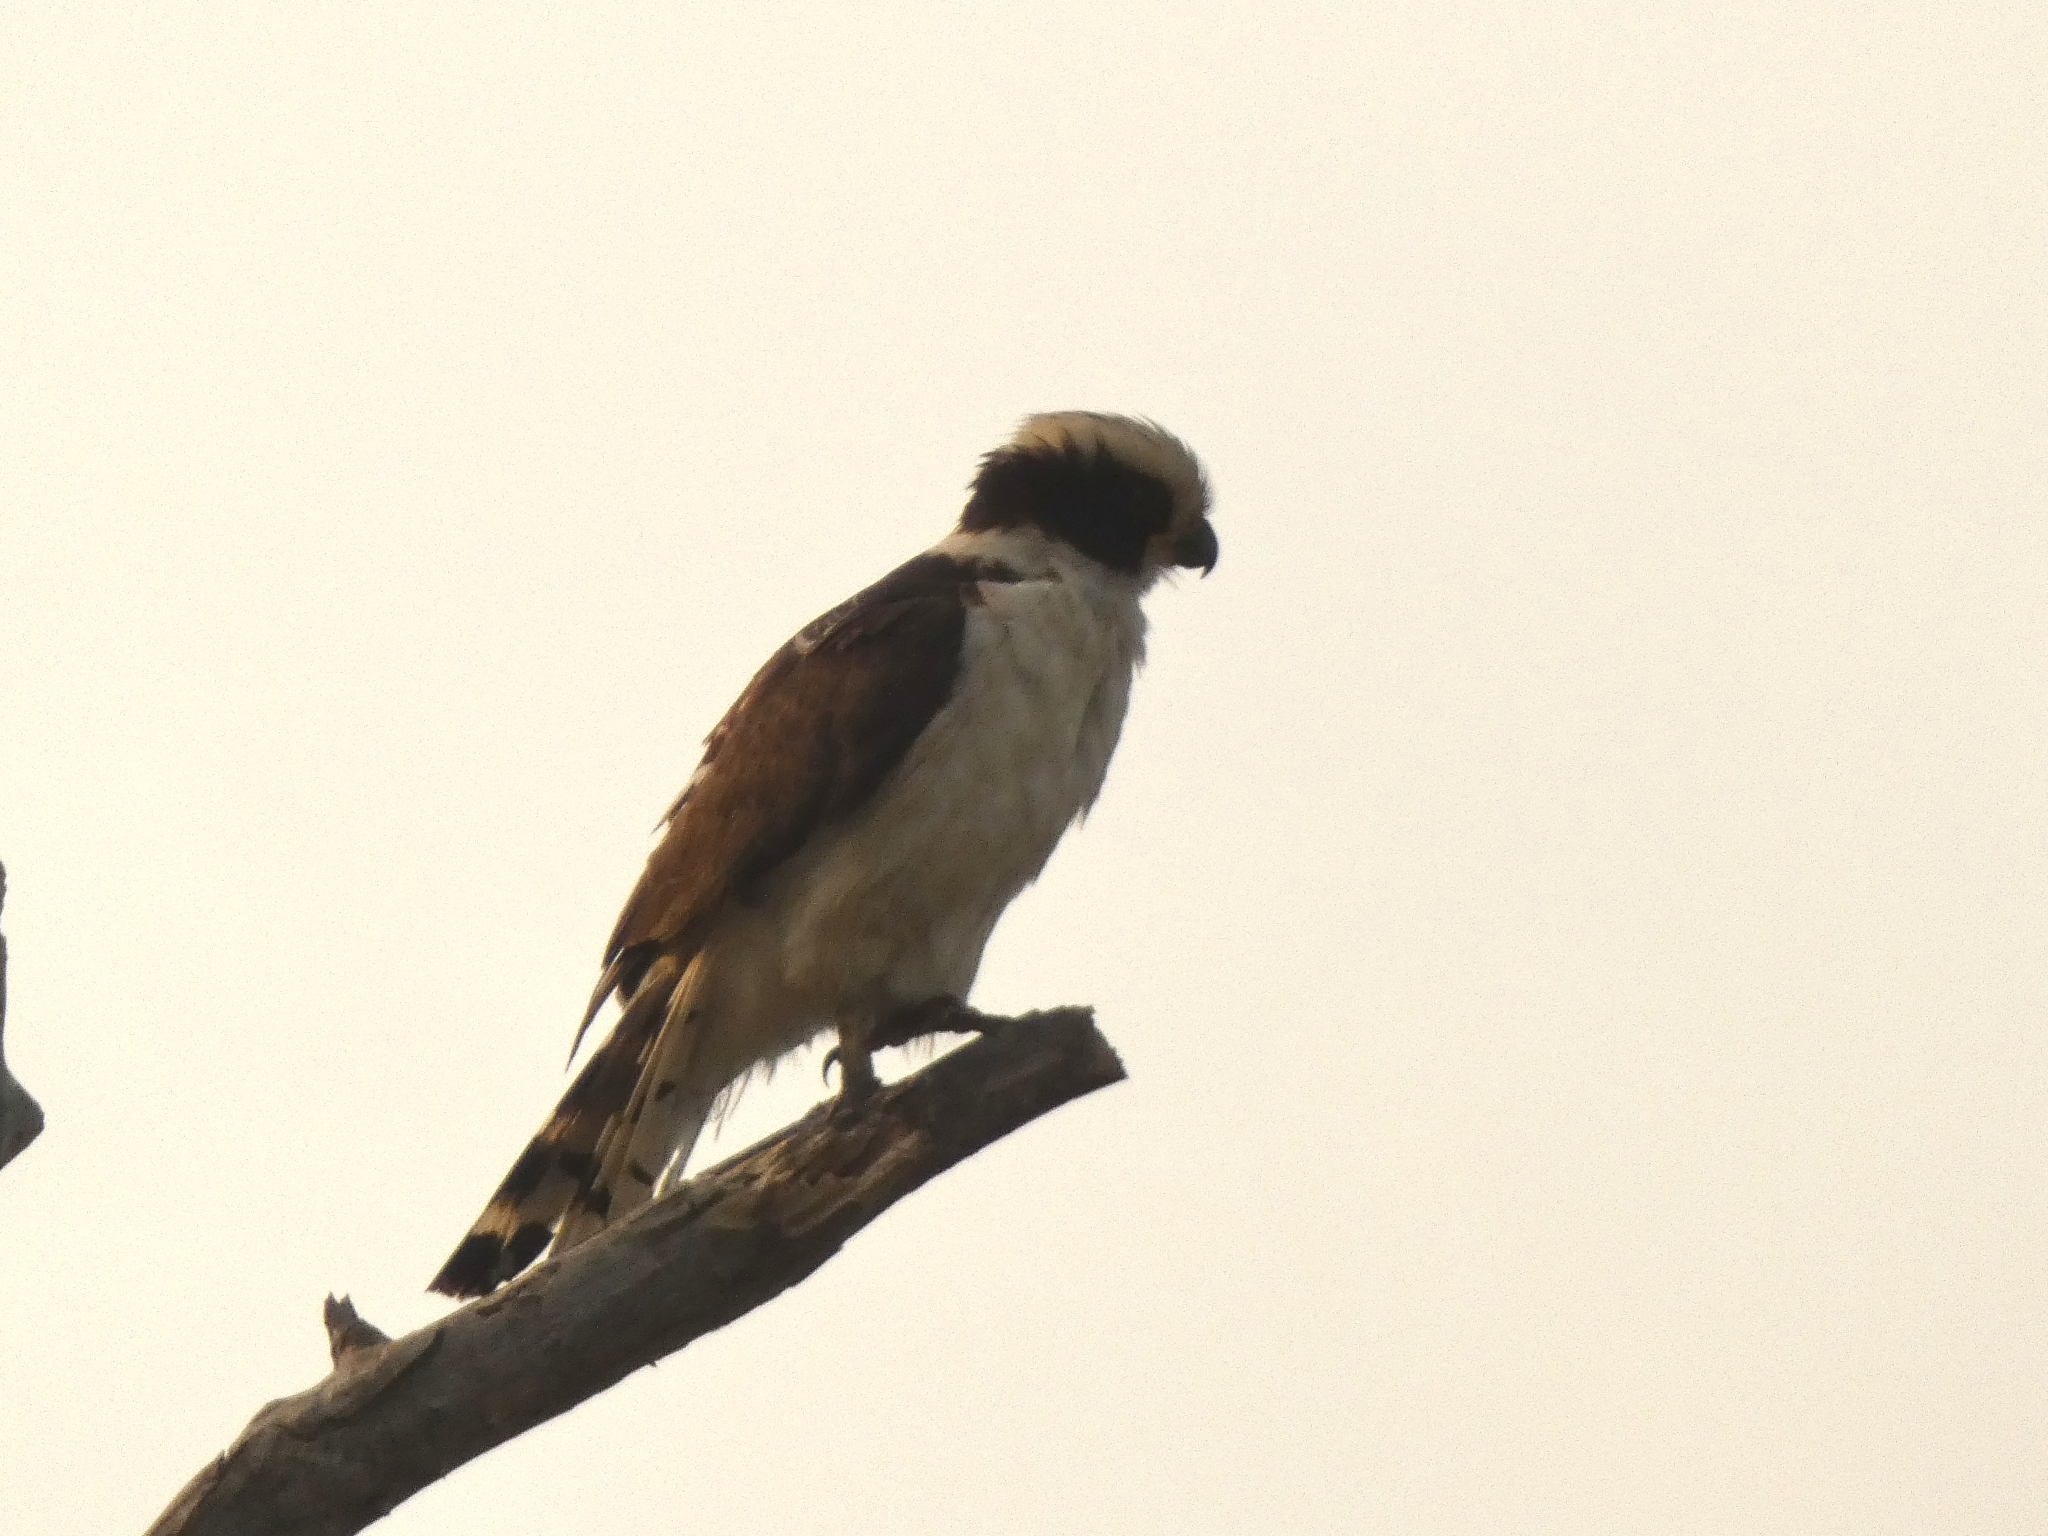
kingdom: Animalia
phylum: Chordata
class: Aves
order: Falconiformes
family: Falconidae
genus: Herpetotheres
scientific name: Herpetotheres cachinnans
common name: Laughing falcon
